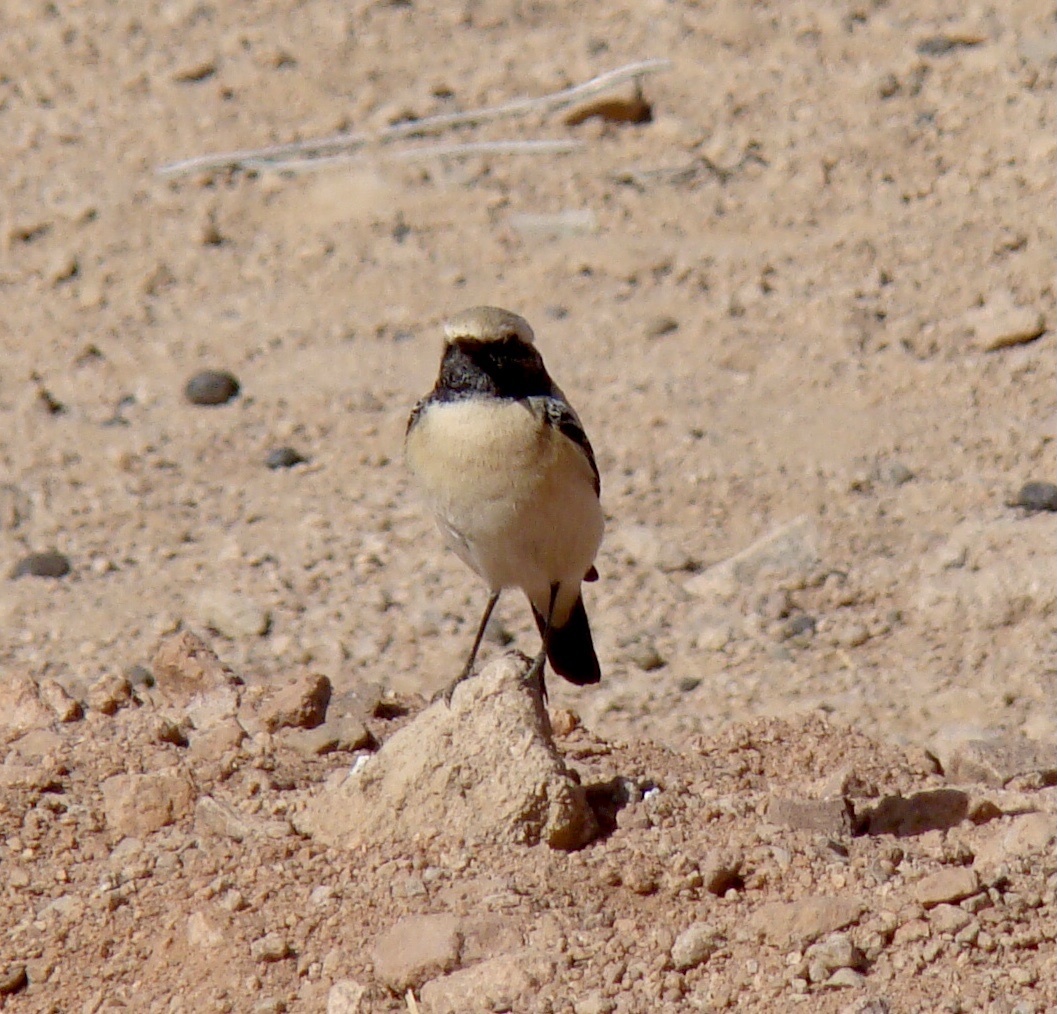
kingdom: Animalia
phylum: Chordata
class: Aves
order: Passeriformes
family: Muscicapidae
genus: Oenanthe
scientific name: Oenanthe deserti
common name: Desert wheatear
